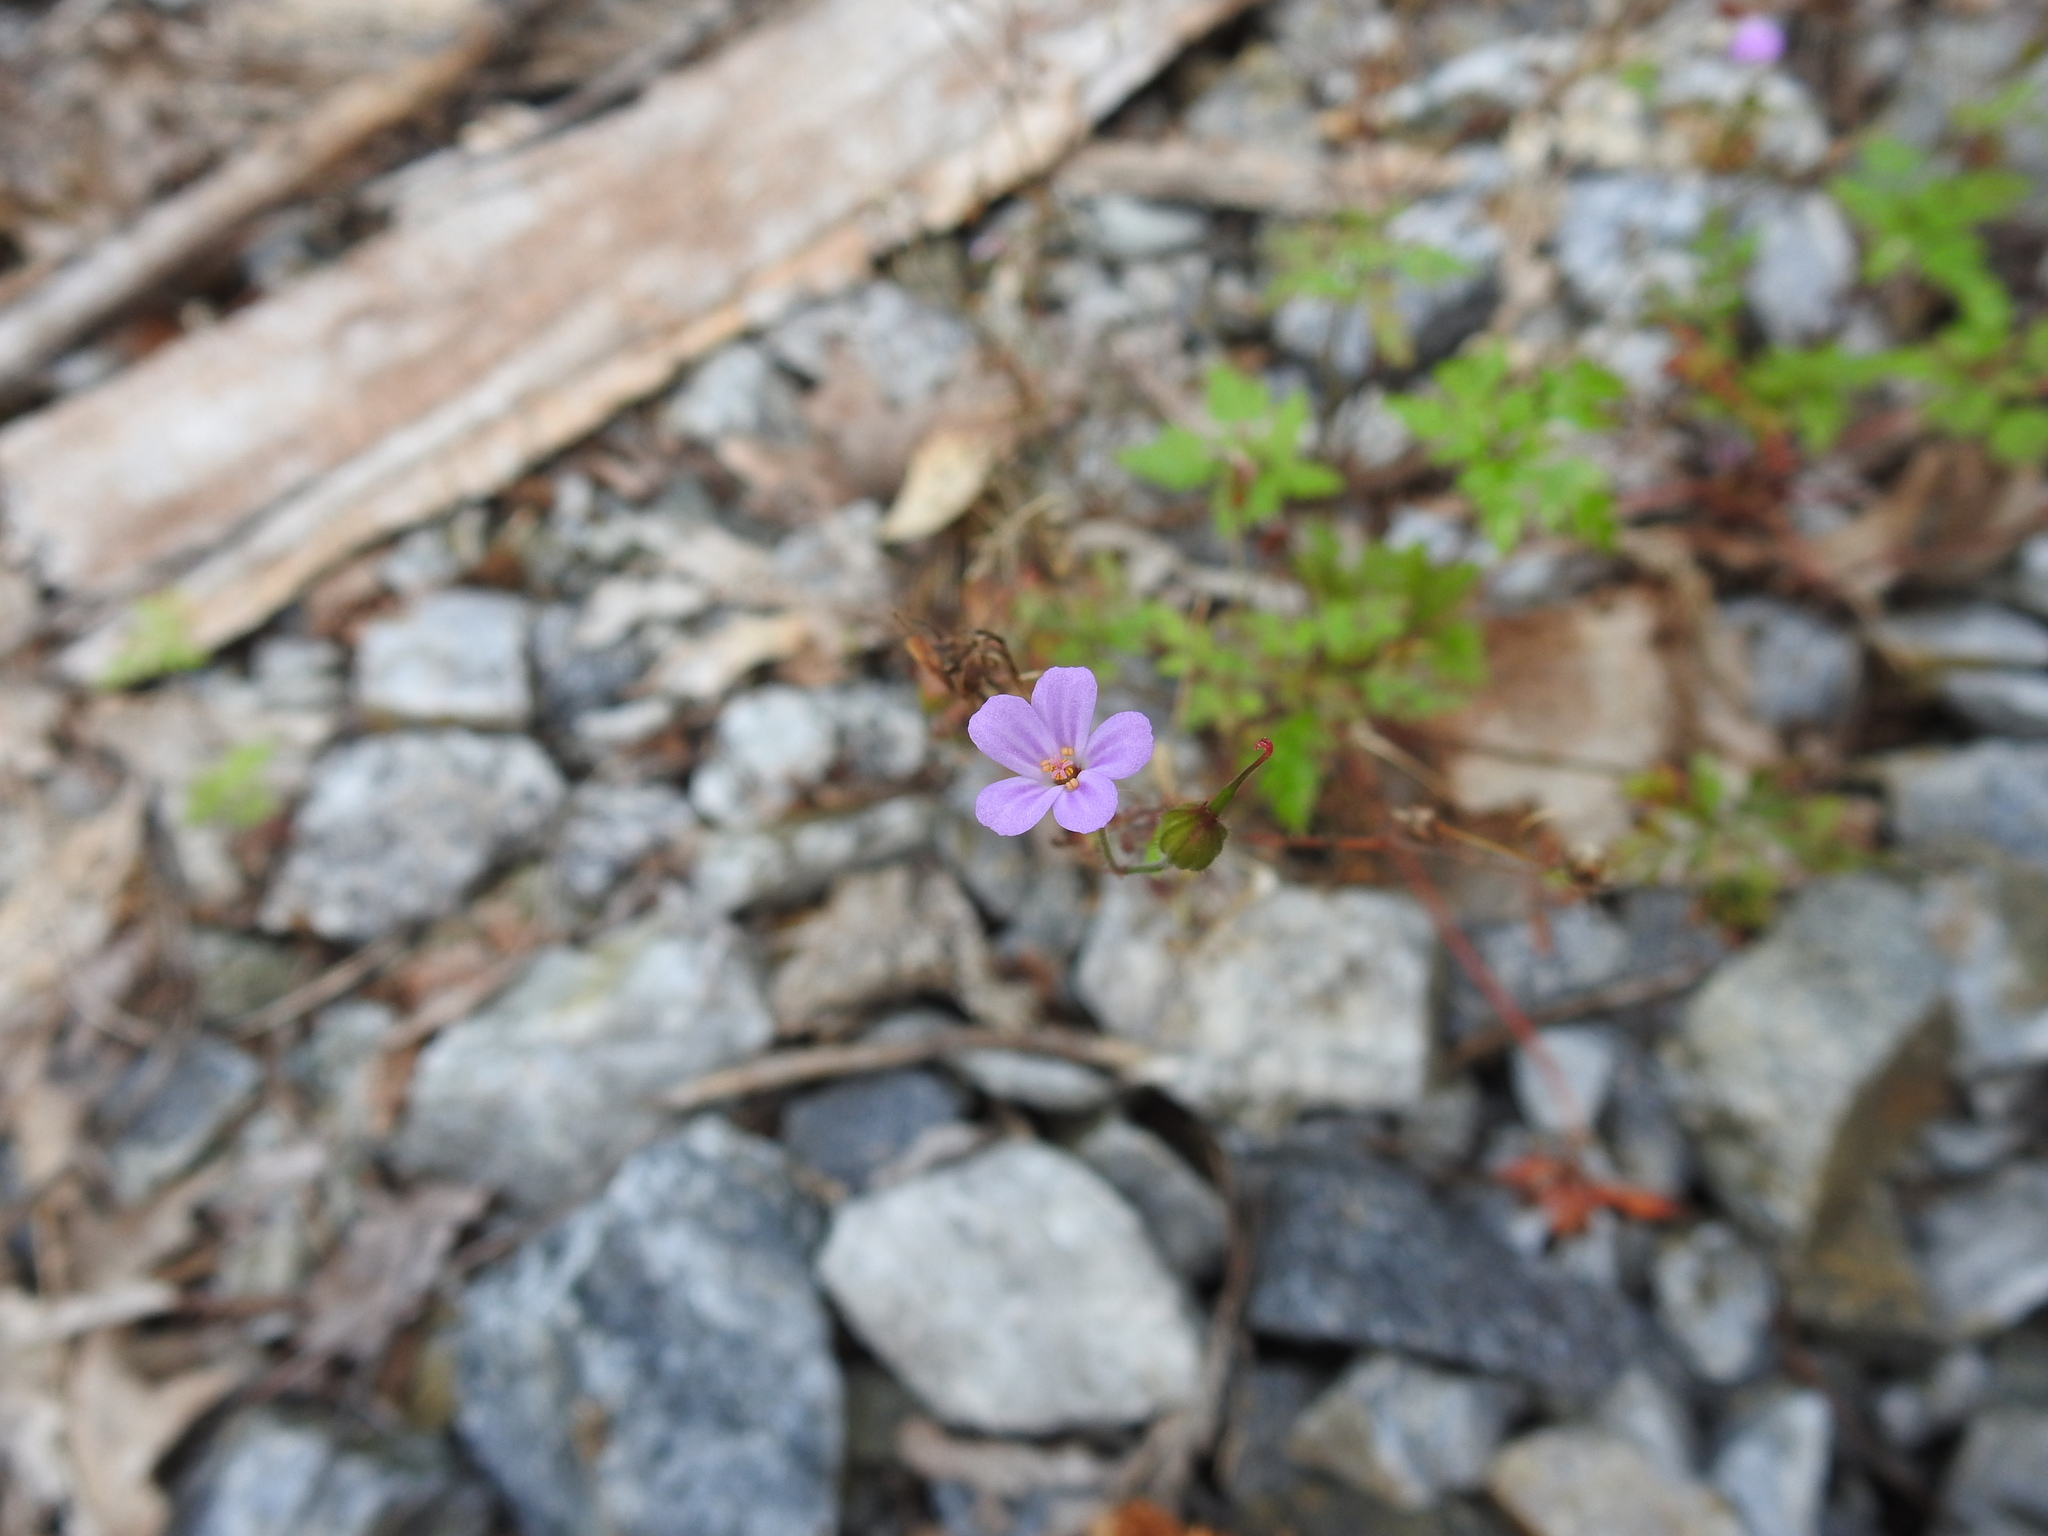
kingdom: Plantae
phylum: Tracheophyta
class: Magnoliopsida
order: Geraniales
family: Geraniaceae
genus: Geranium
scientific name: Geranium robertianum
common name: Herb-robert
